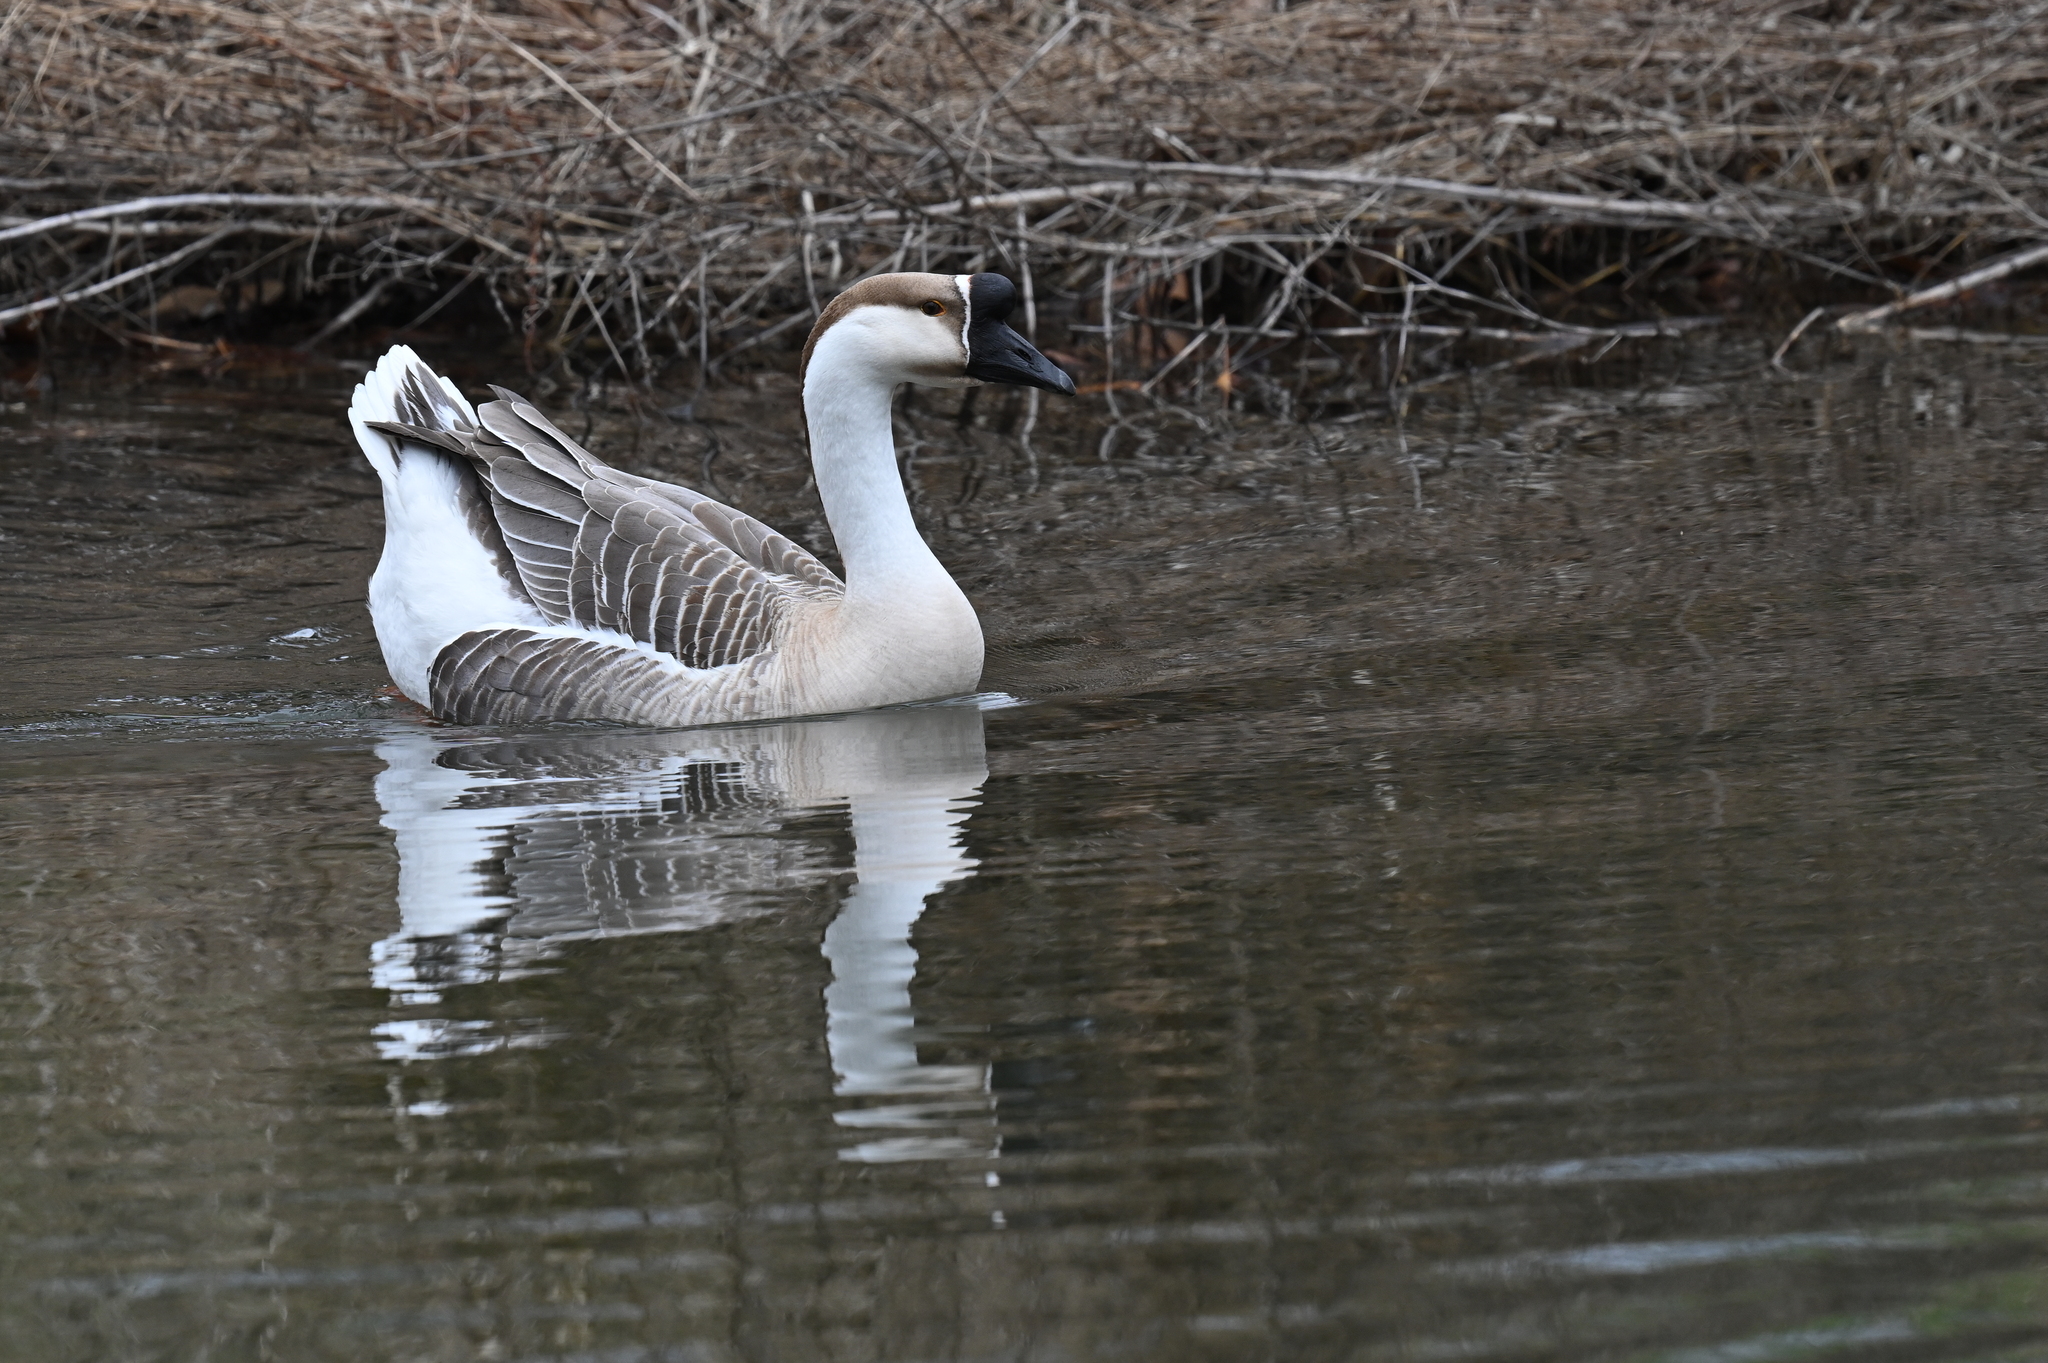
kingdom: Animalia
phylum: Chordata
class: Aves
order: Anseriformes
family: Anatidae
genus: Anser
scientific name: Anser cygnoides
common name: Swan goose
